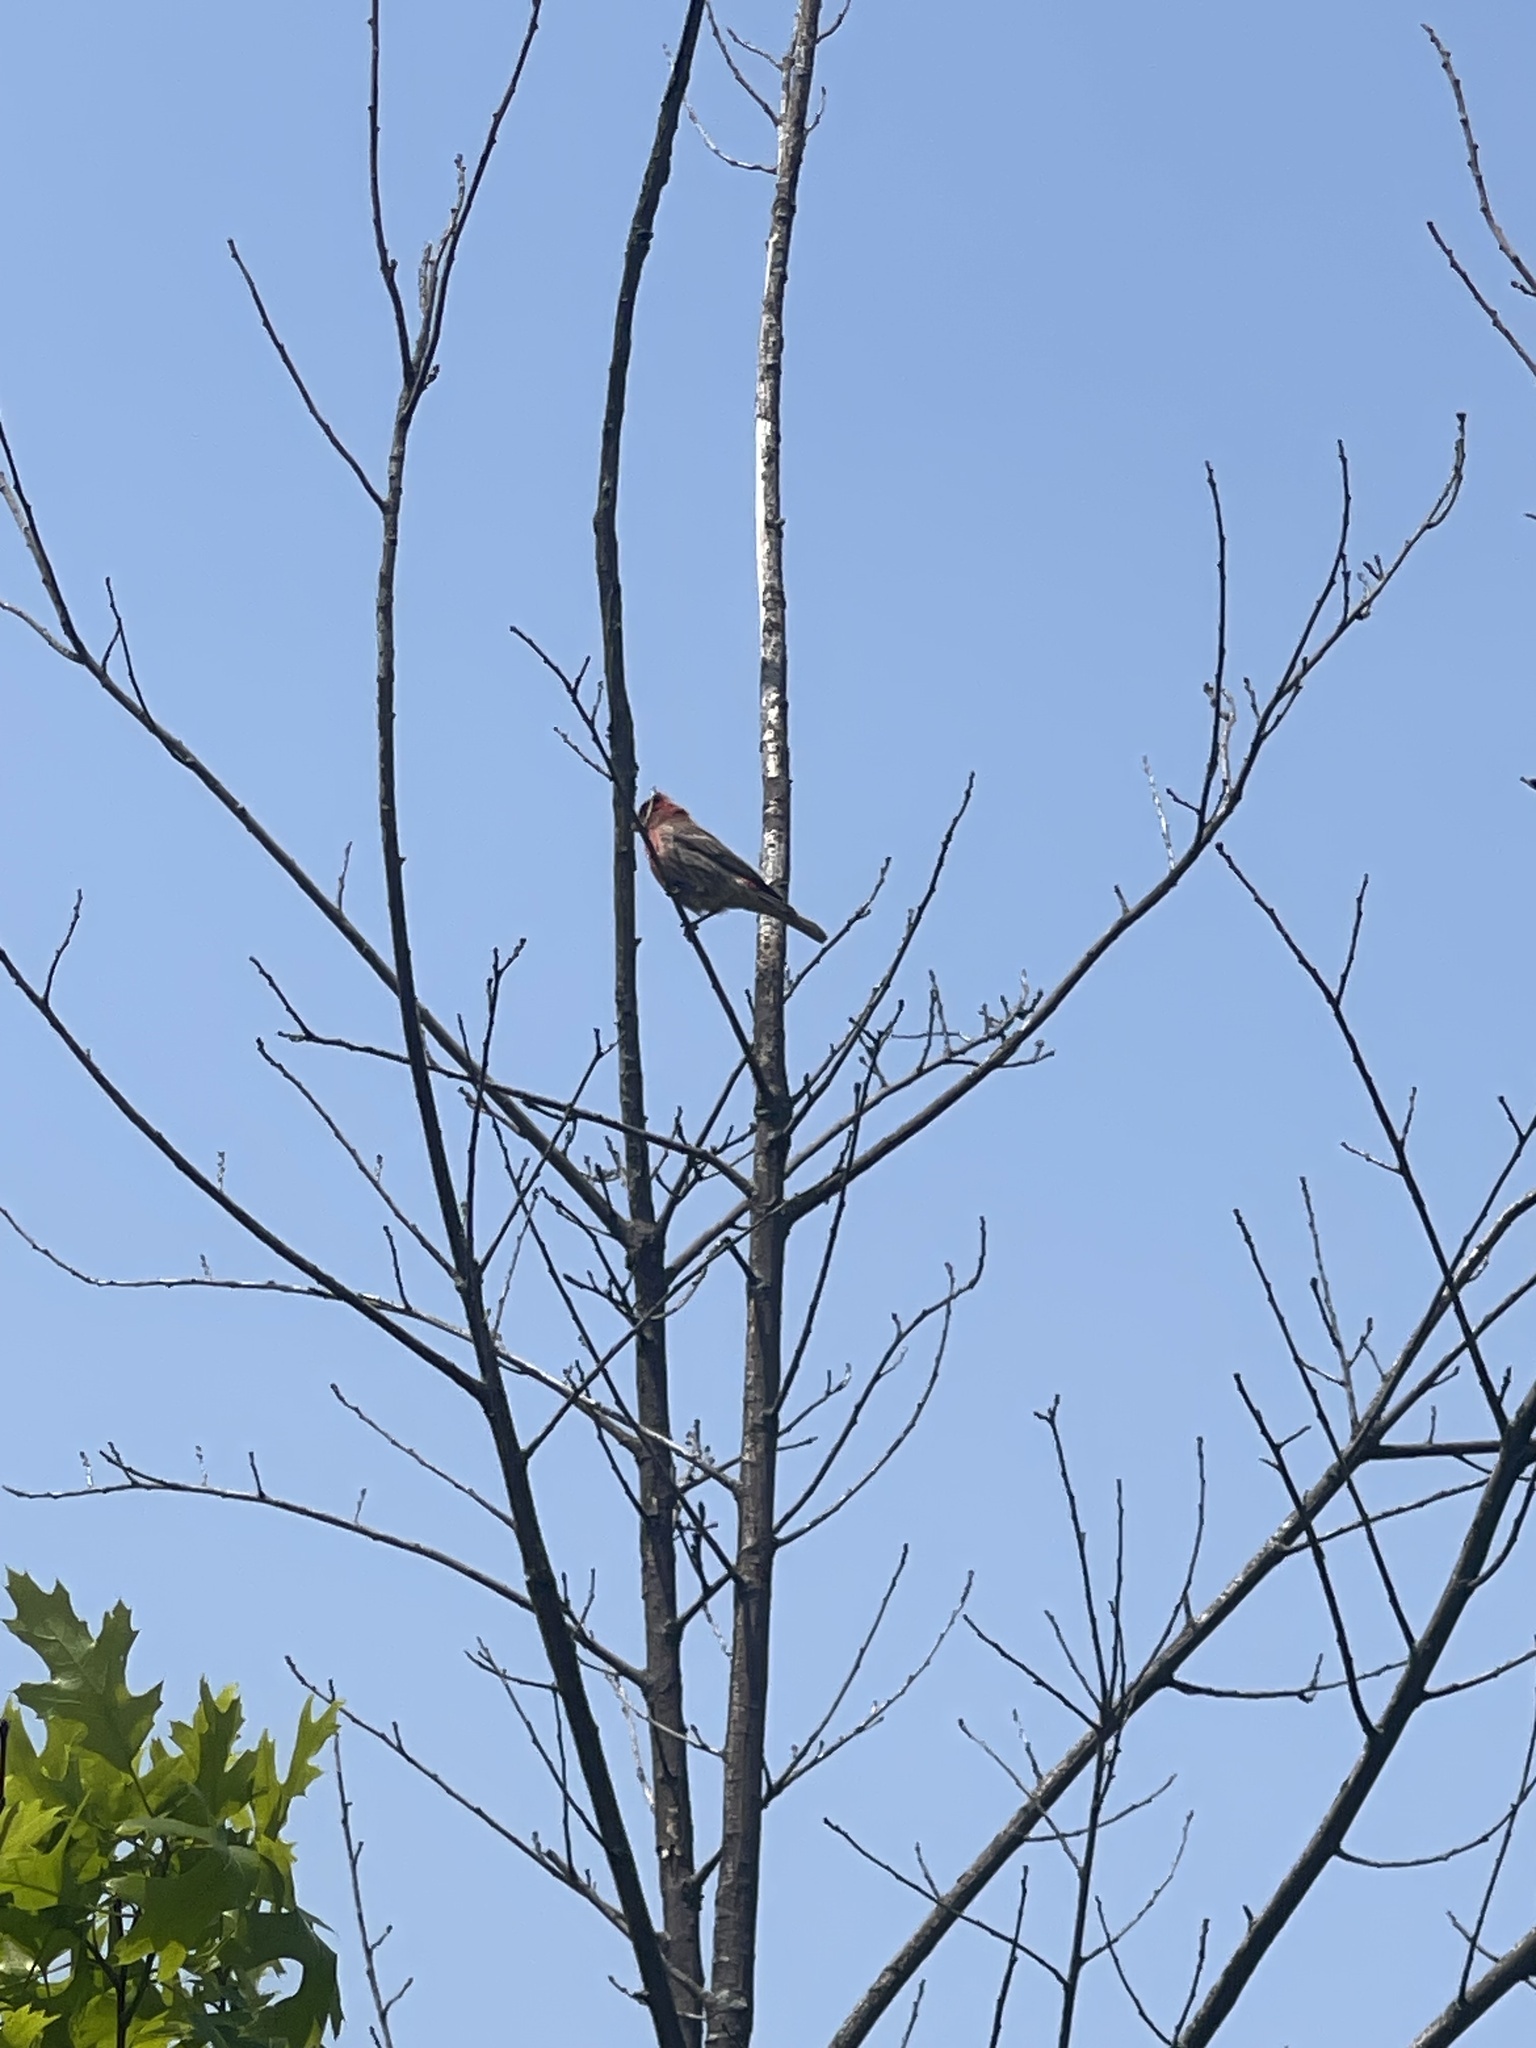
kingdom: Animalia
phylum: Chordata
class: Aves
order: Passeriformes
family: Fringillidae
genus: Haemorhous
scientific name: Haemorhous mexicanus
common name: House finch
